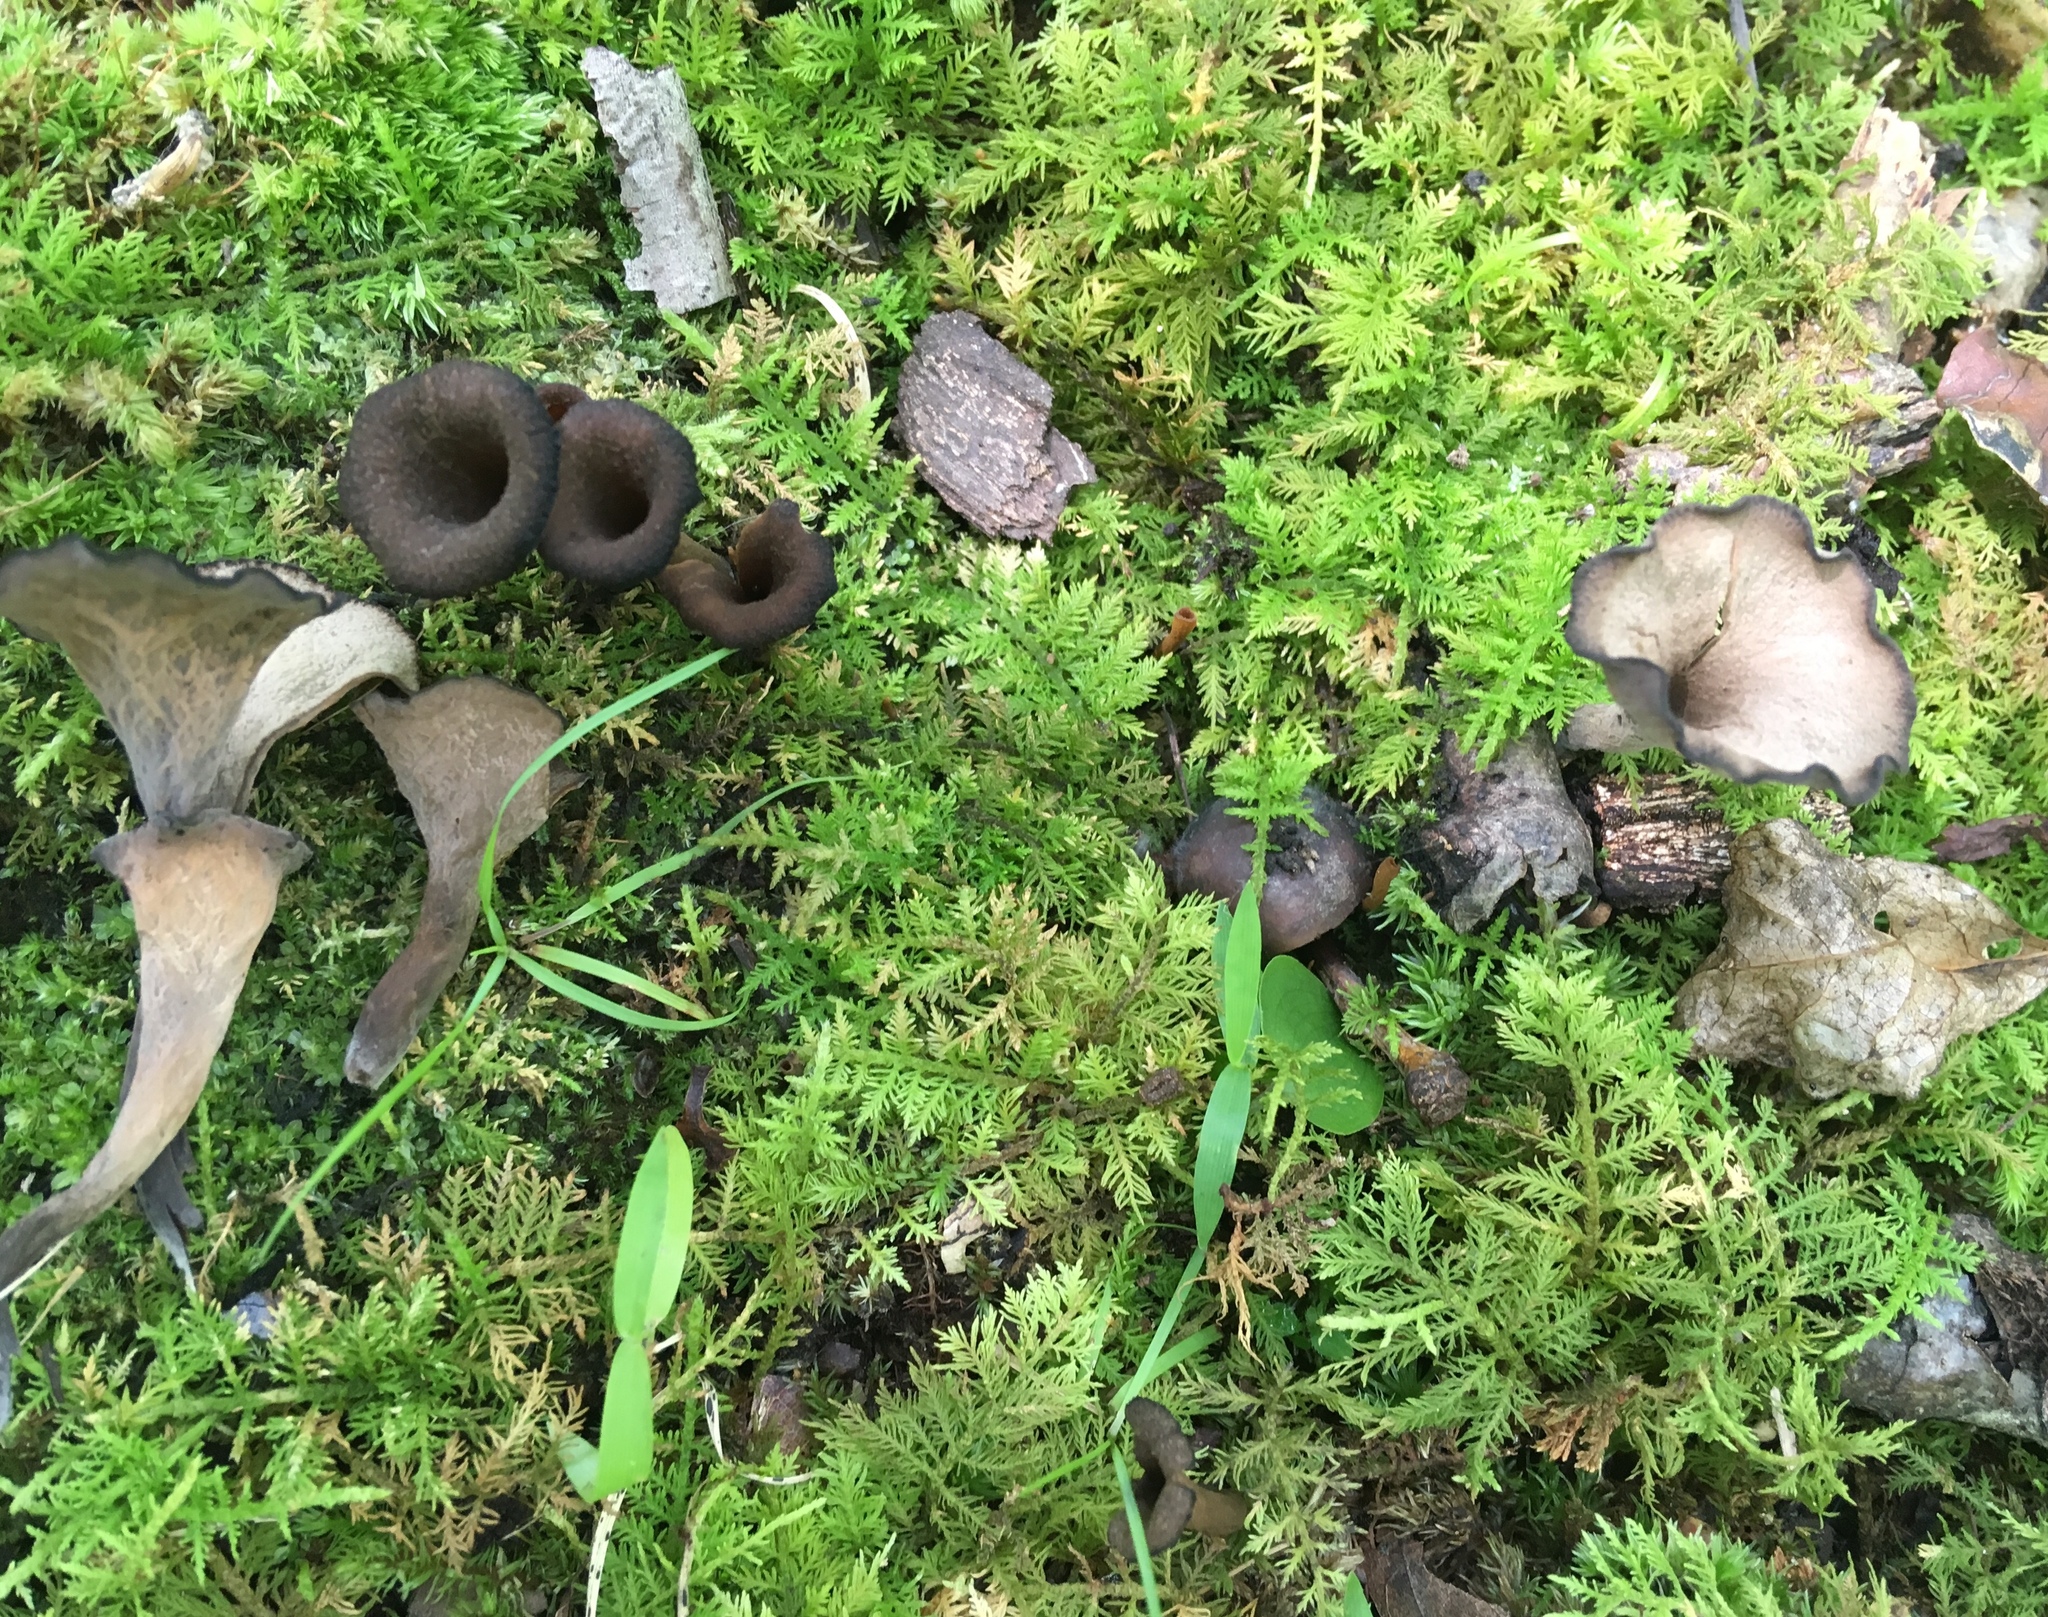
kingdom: Fungi
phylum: Basidiomycota
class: Agaricomycetes
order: Cantharellales
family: Hydnaceae
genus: Craterellus
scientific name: Craterellus cornucopioides
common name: Horn of plenty
